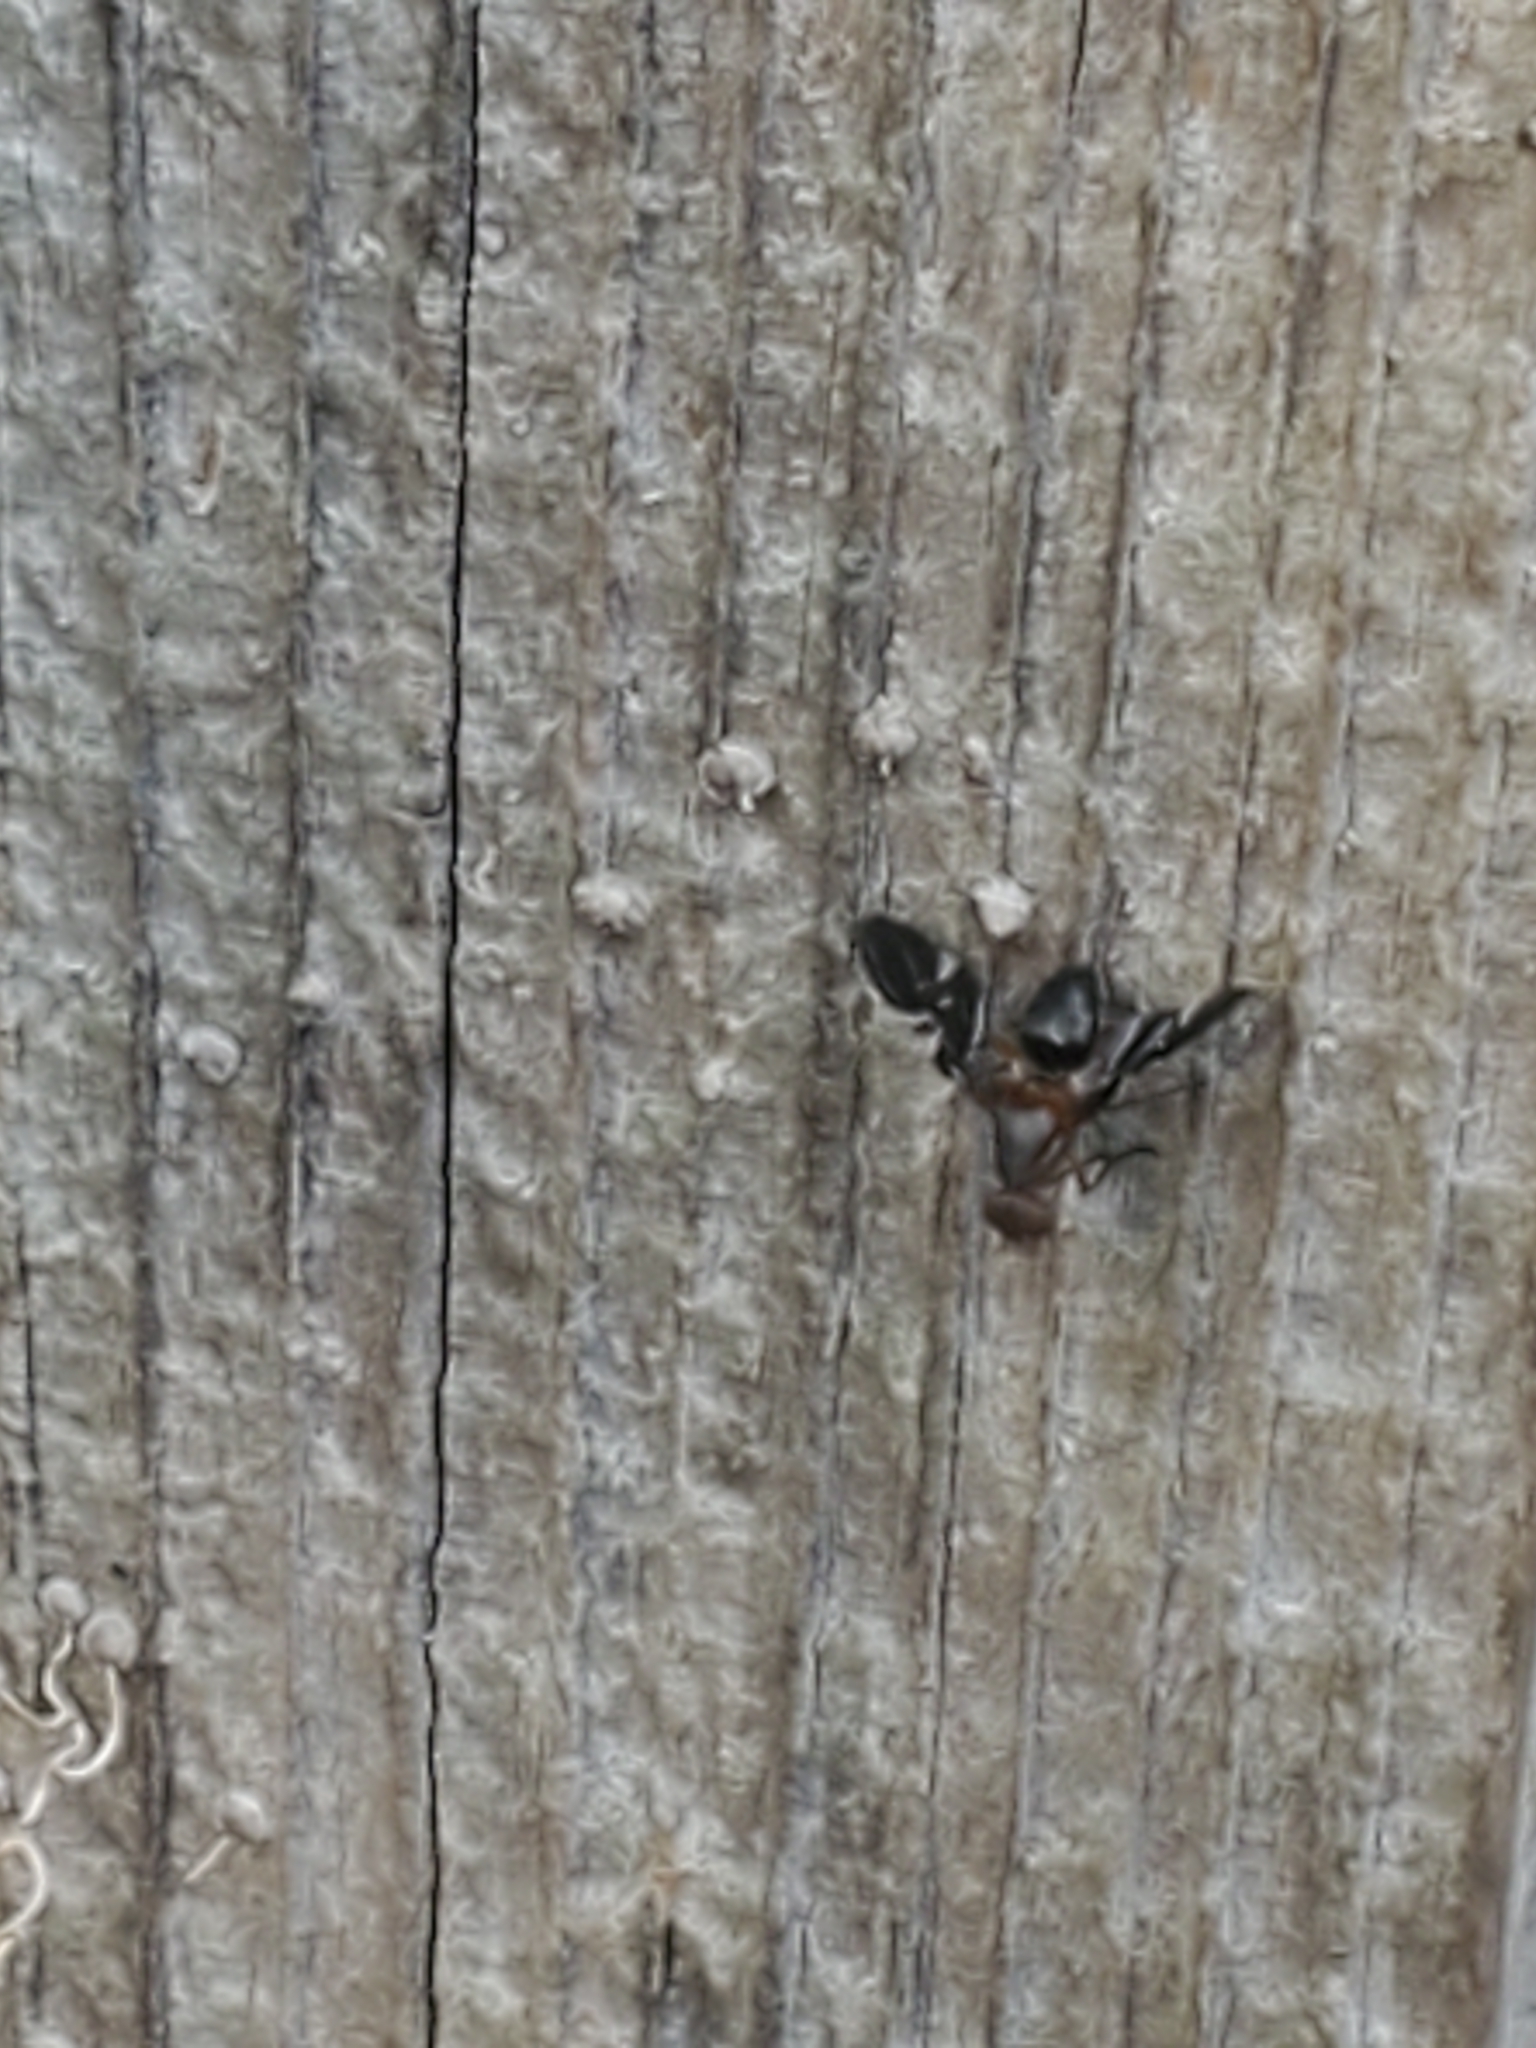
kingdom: Animalia
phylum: Arthropoda
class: Insecta
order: Diptera
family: Ulidiidae
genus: Delphinia
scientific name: Delphinia picta
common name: Common picture-winged fly
